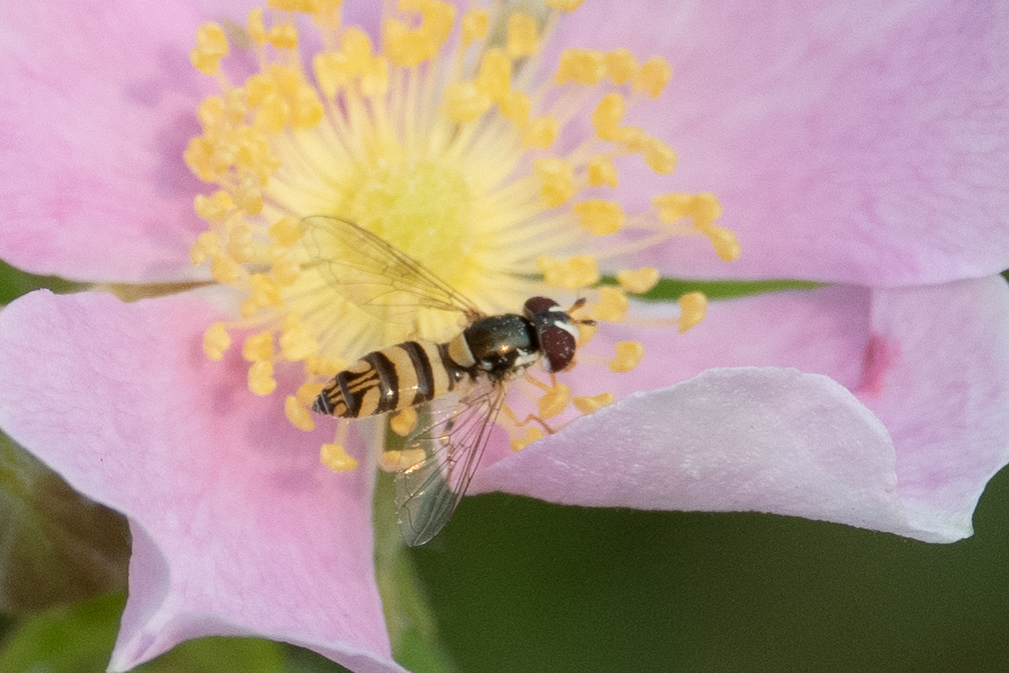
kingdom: Animalia
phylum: Arthropoda
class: Insecta
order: Diptera
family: Syrphidae
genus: Allograpta
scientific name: Allograpta exotica
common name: Syrphid fly
